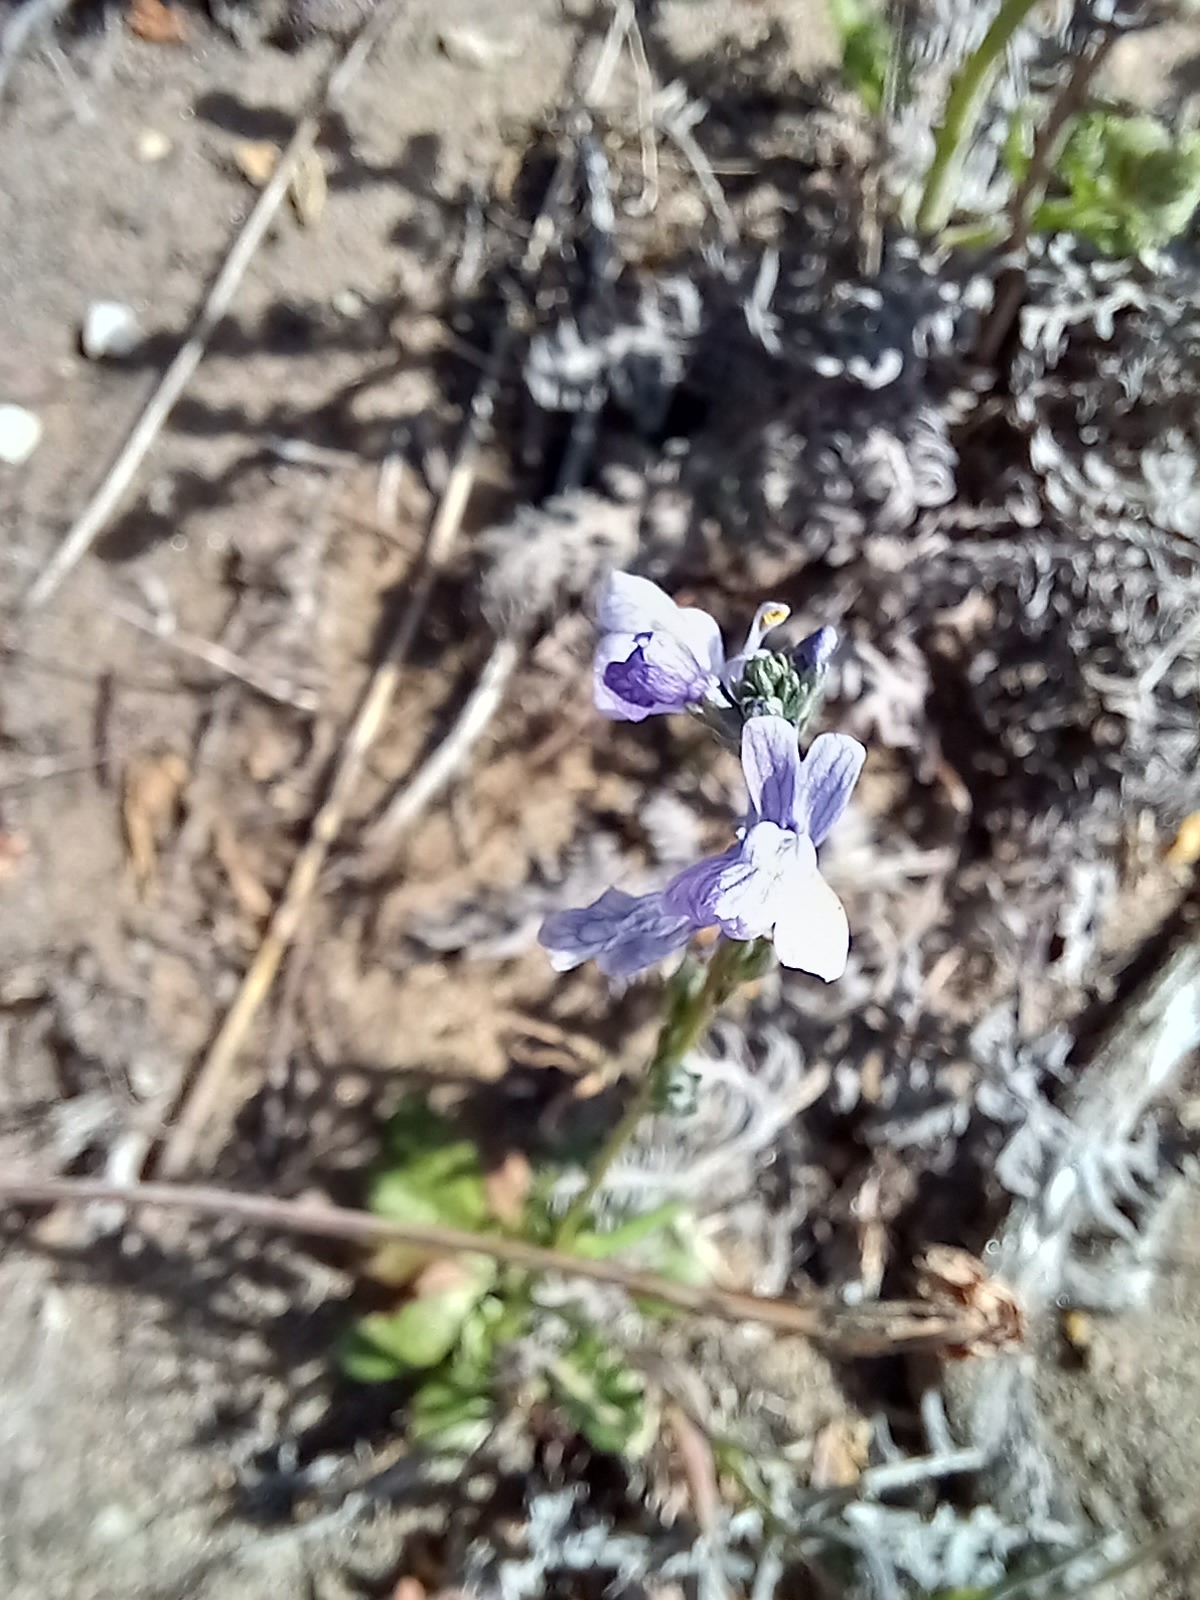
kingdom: Plantae
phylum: Tracheophyta
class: Magnoliopsida
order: Lamiales
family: Plantaginaceae
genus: Nuttallanthus
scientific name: Nuttallanthus texanus
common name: Texas toadflax
